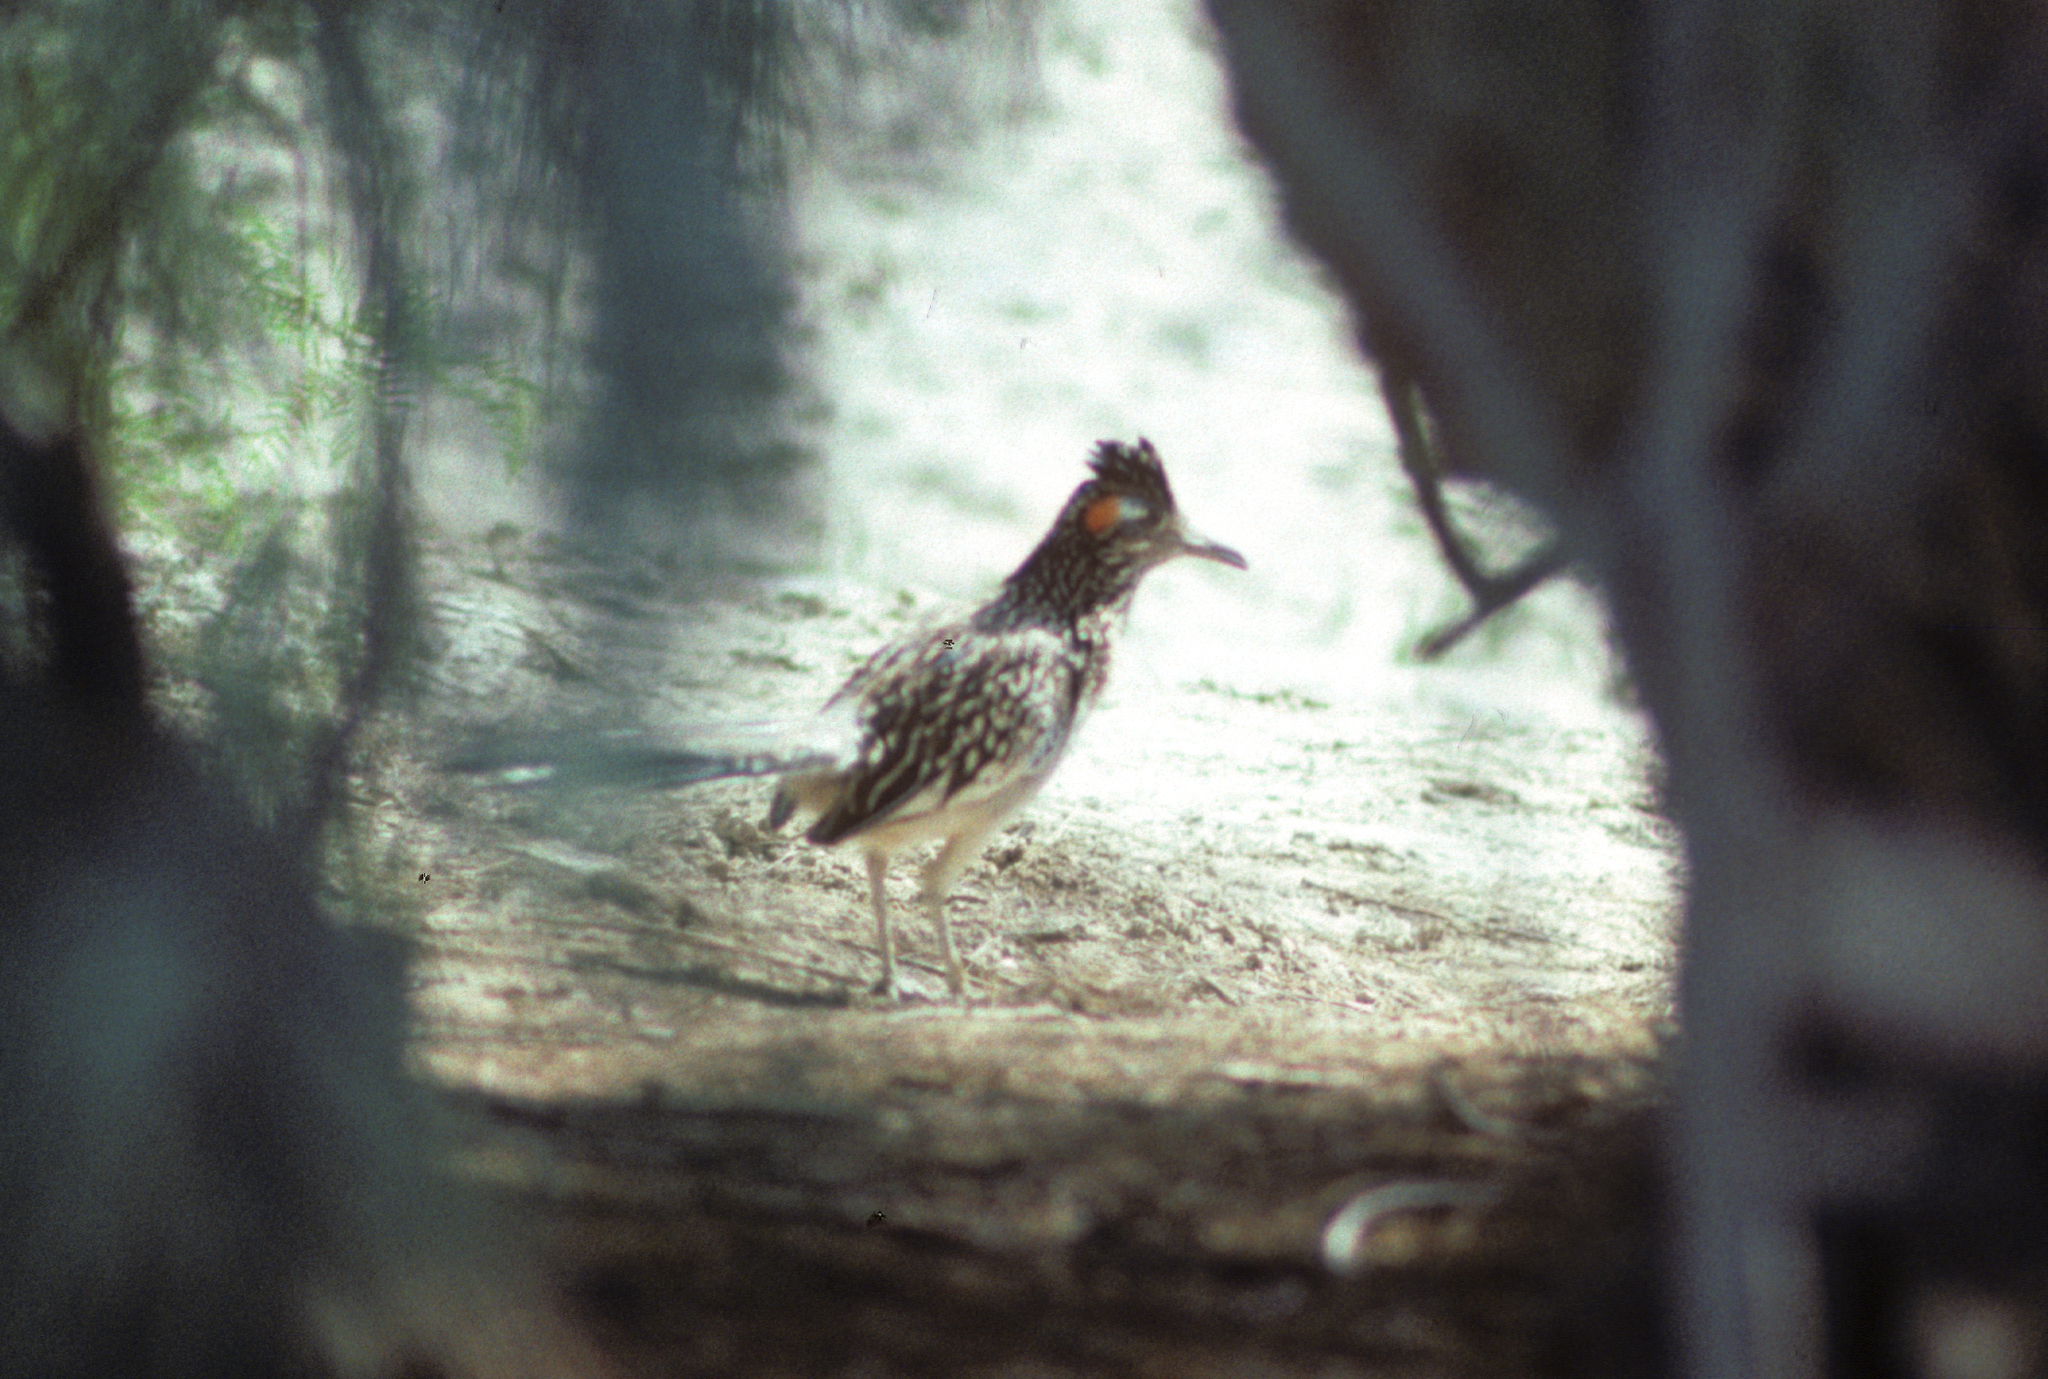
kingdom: Animalia
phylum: Chordata
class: Aves
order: Cuculiformes
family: Cuculidae
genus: Geococcyx
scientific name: Geococcyx californianus
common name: Greater roadrunner
